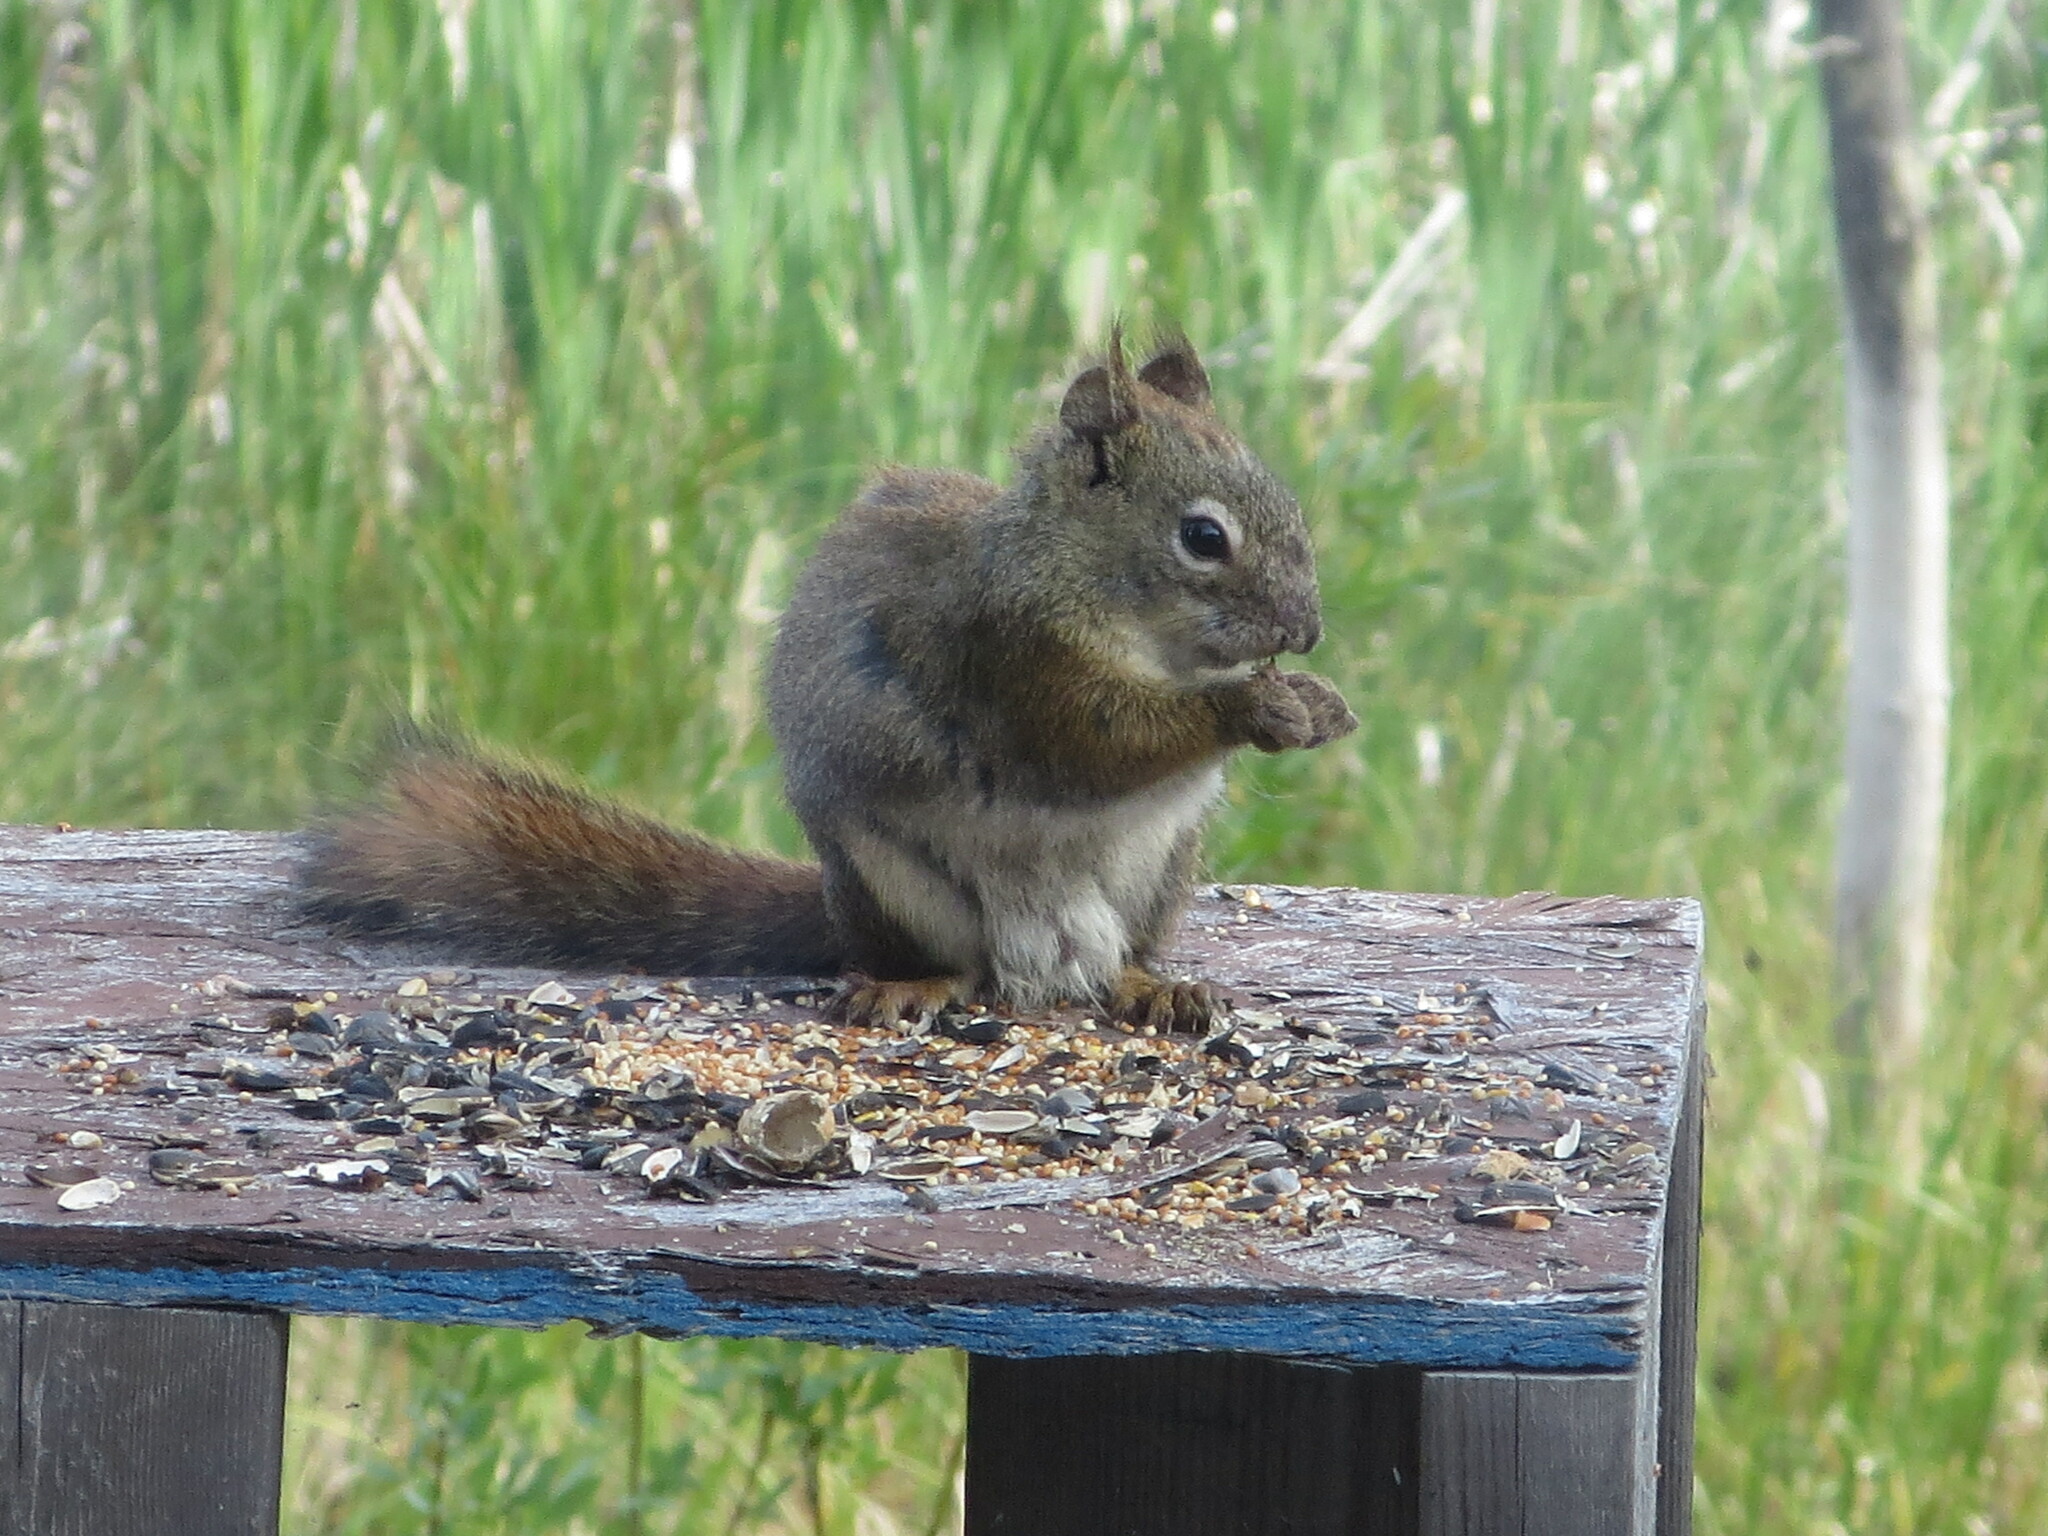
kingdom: Animalia
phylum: Chordata
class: Mammalia
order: Rodentia
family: Sciuridae
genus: Tamiasciurus
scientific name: Tamiasciurus hudsonicus
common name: Red squirrel
